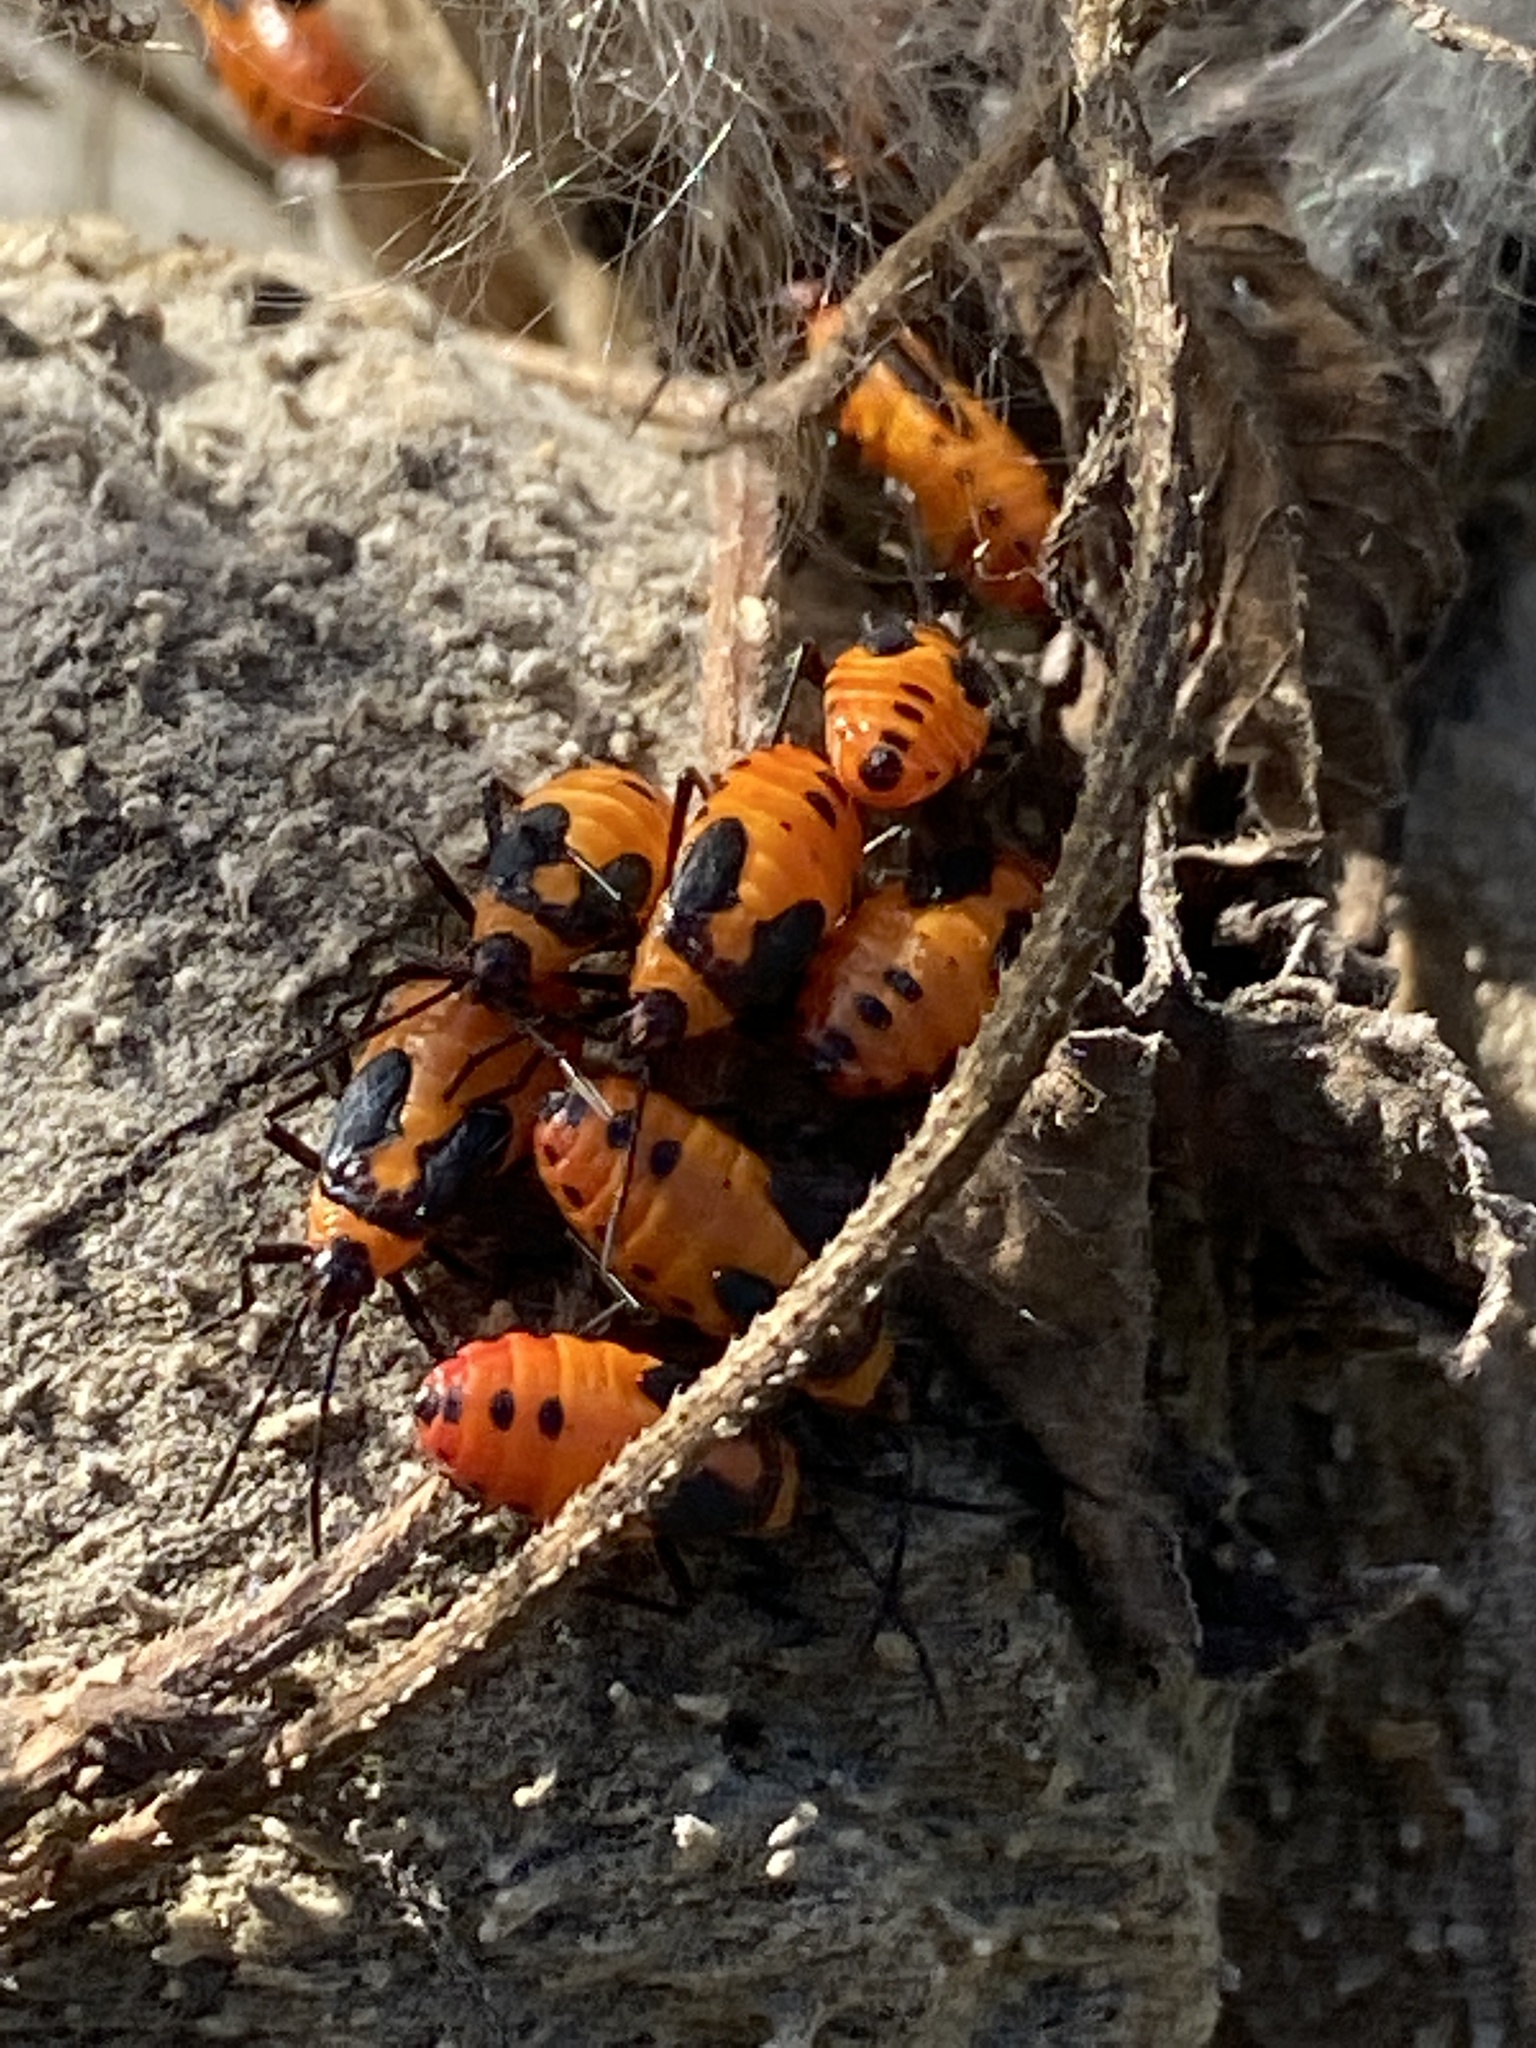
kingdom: Animalia
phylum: Arthropoda
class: Insecta
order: Hemiptera
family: Lygaeidae
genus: Oncopeltus
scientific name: Oncopeltus fasciatus
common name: Large milkweed bug
